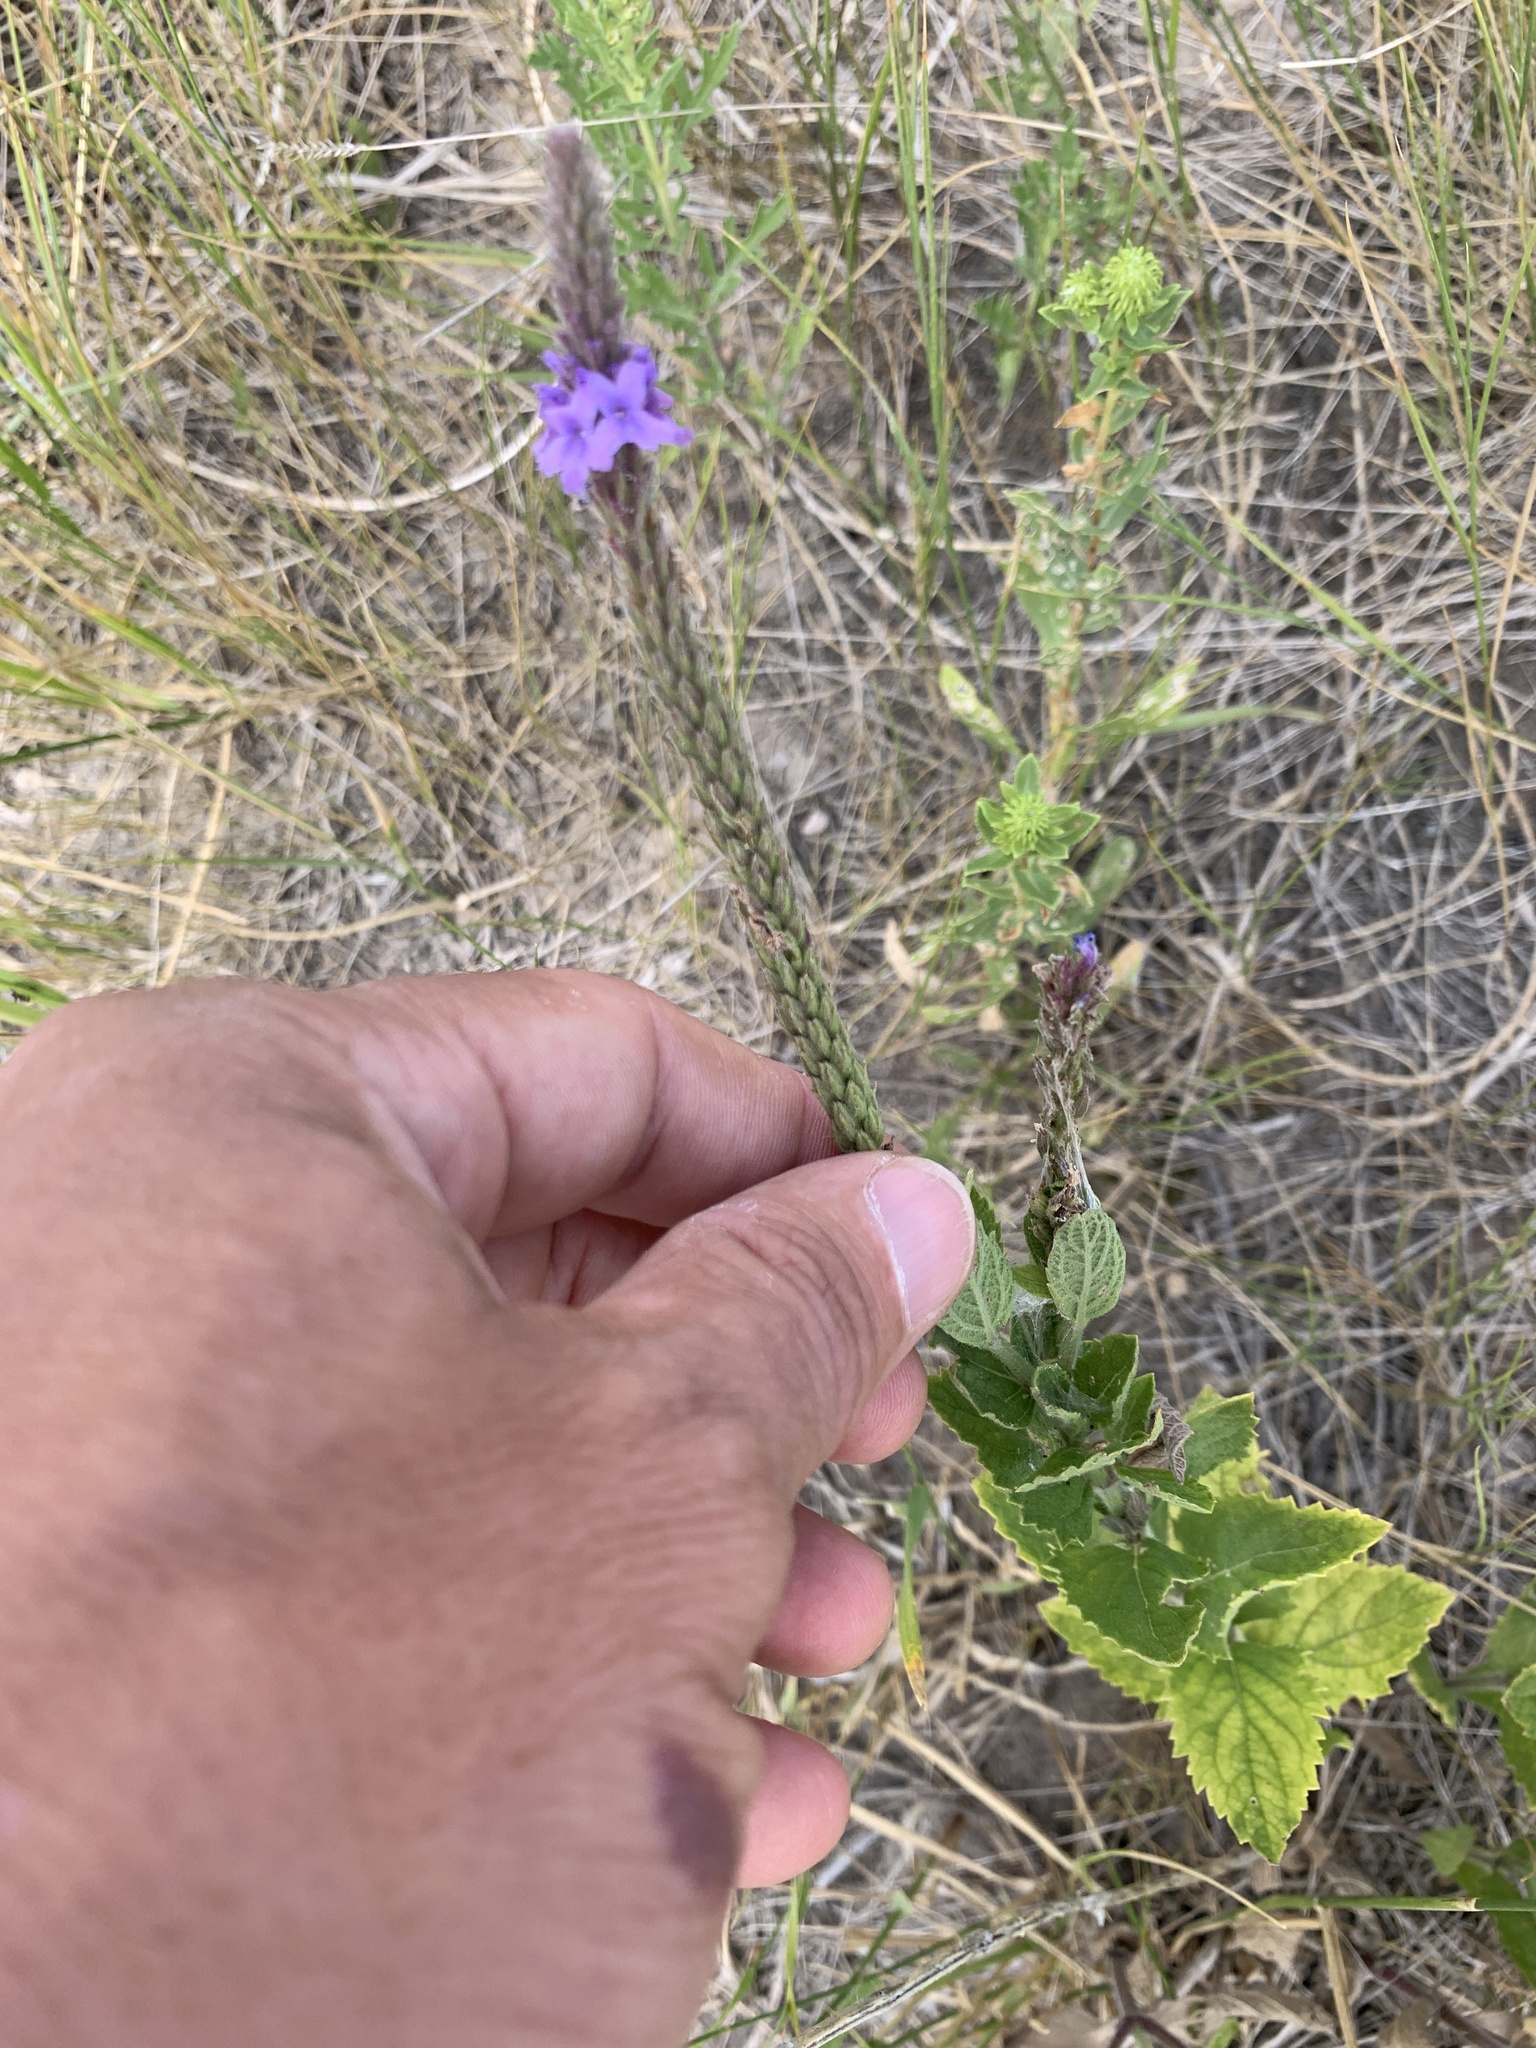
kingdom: Plantae
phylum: Tracheophyta
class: Magnoliopsida
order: Lamiales
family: Verbenaceae
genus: Verbena
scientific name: Verbena stricta
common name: Hoary vervain
